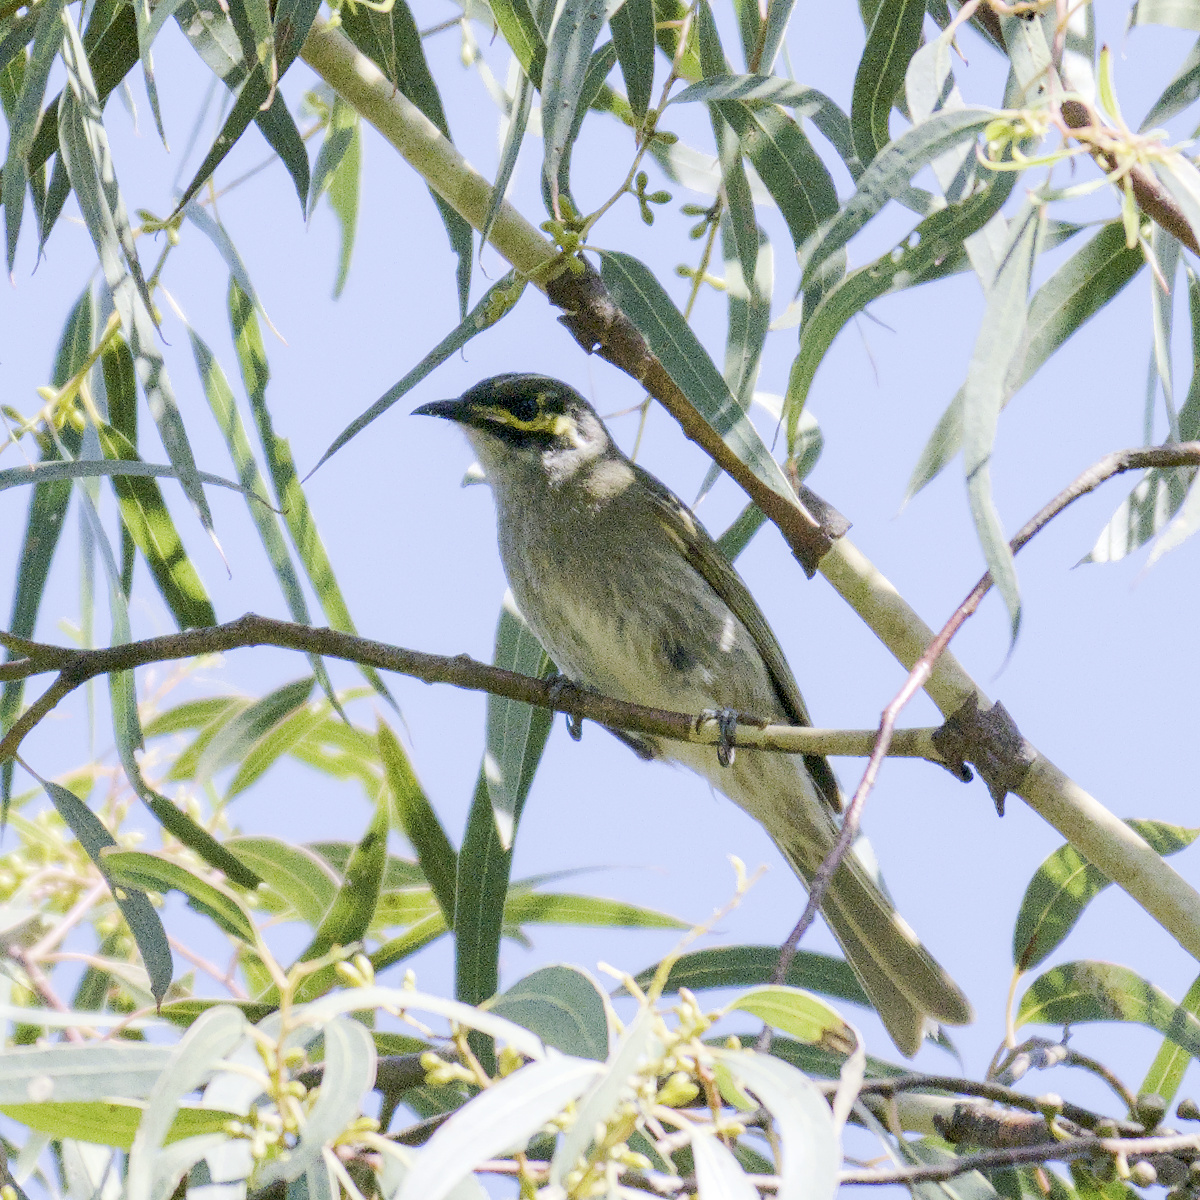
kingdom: Animalia
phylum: Chordata
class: Aves
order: Passeriformes
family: Meliphagidae
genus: Caligavis
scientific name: Caligavis chrysops
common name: Yellow-faced honeyeater
